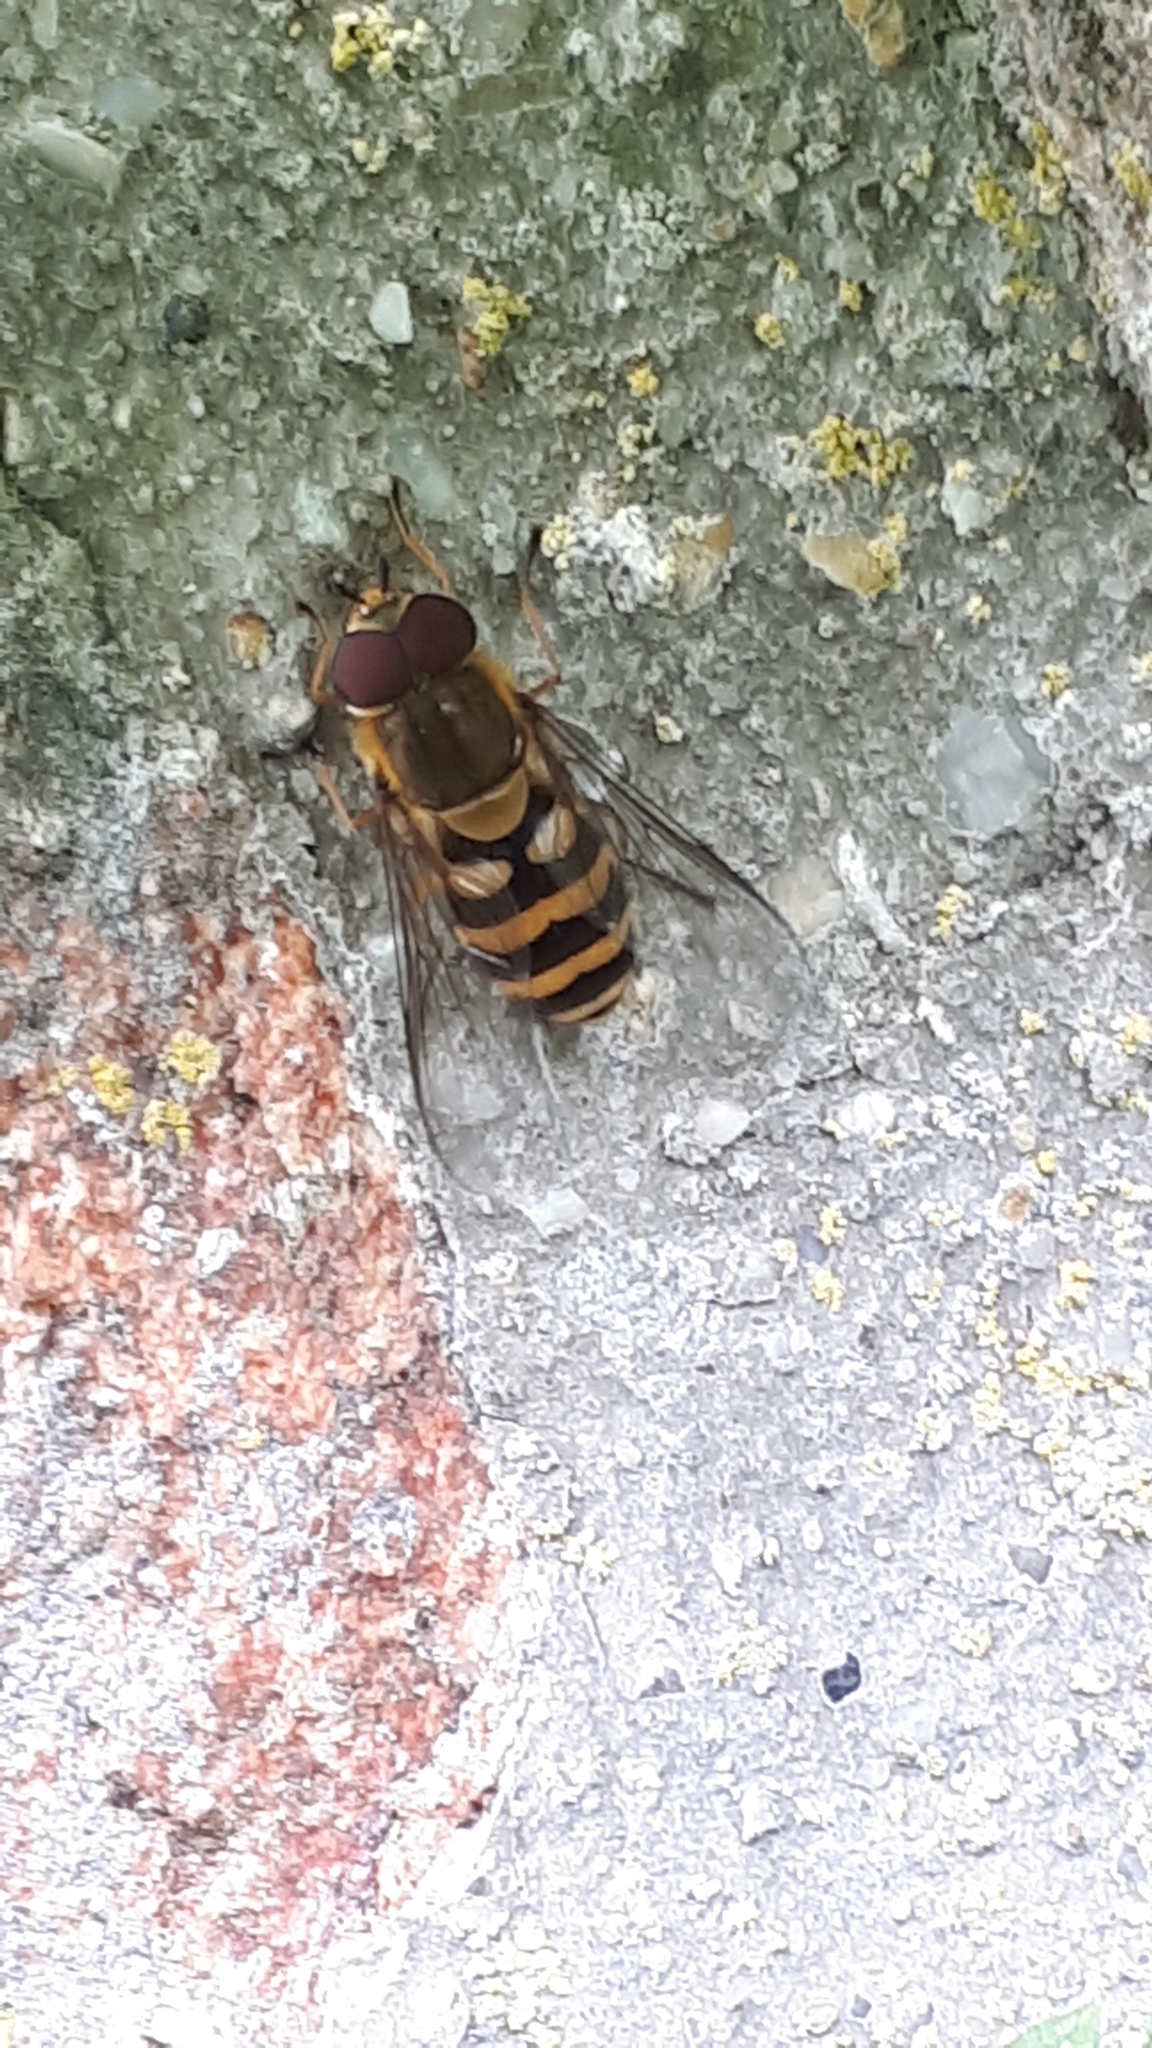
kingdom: Animalia
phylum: Arthropoda
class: Insecta
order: Diptera
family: Syrphidae
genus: Syrphus
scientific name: Syrphus
